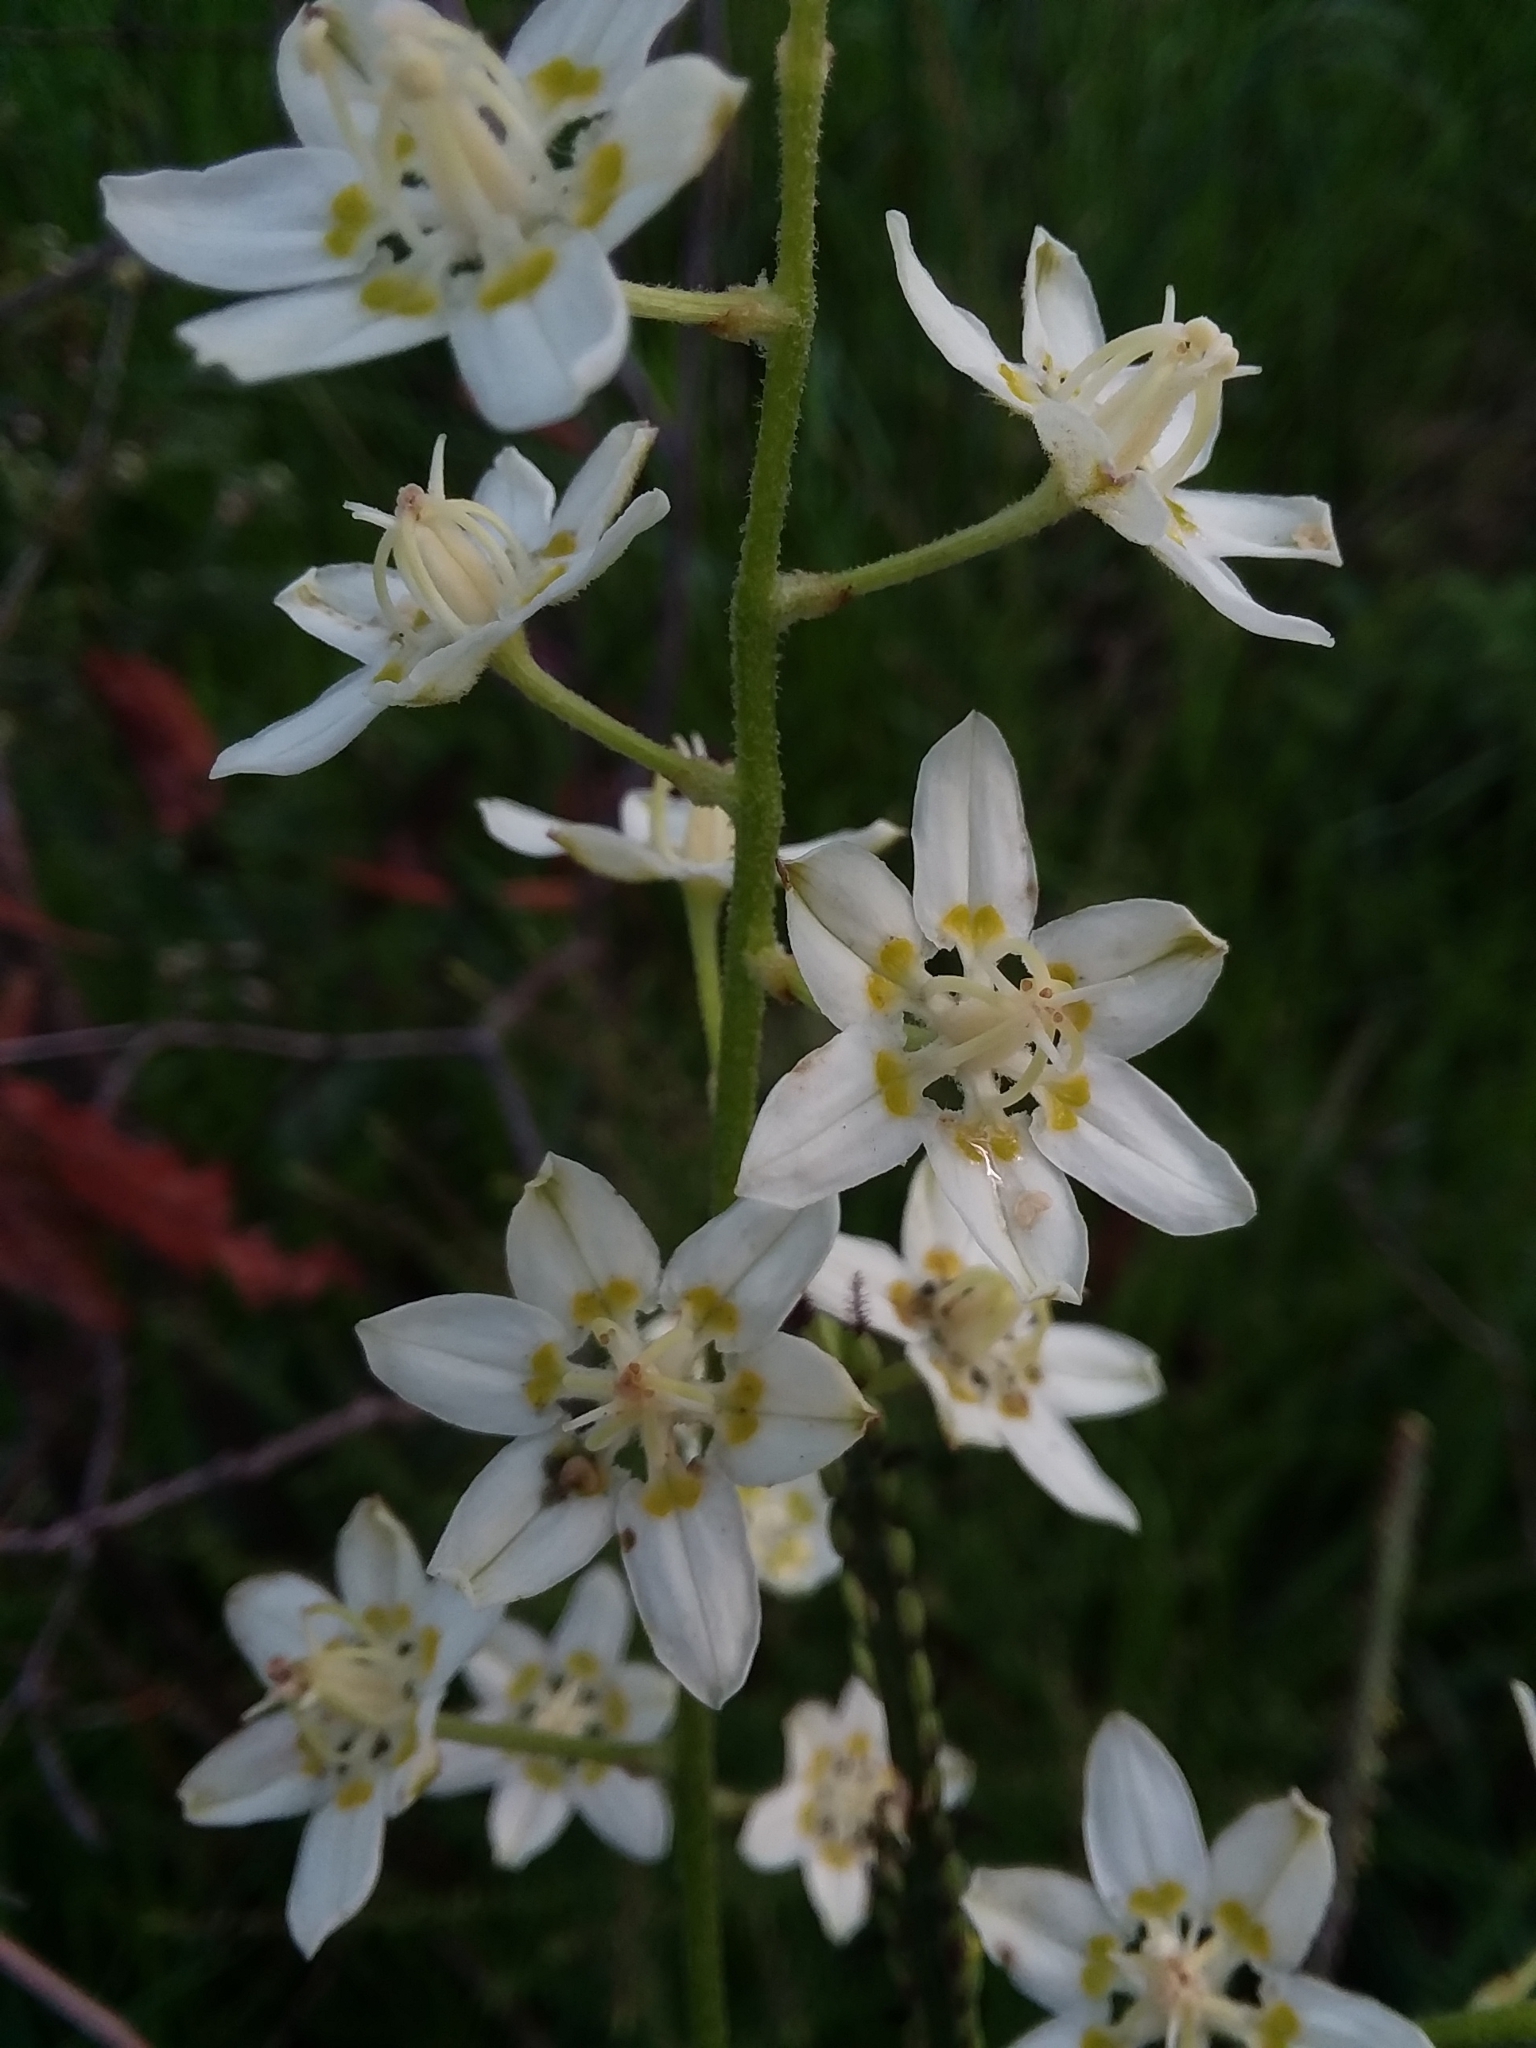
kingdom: Plantae
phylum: Tracheophyta
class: Liliopsida
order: Liliales
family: Melanthiaceae
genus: Melanthium
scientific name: Melanthium virginicum
